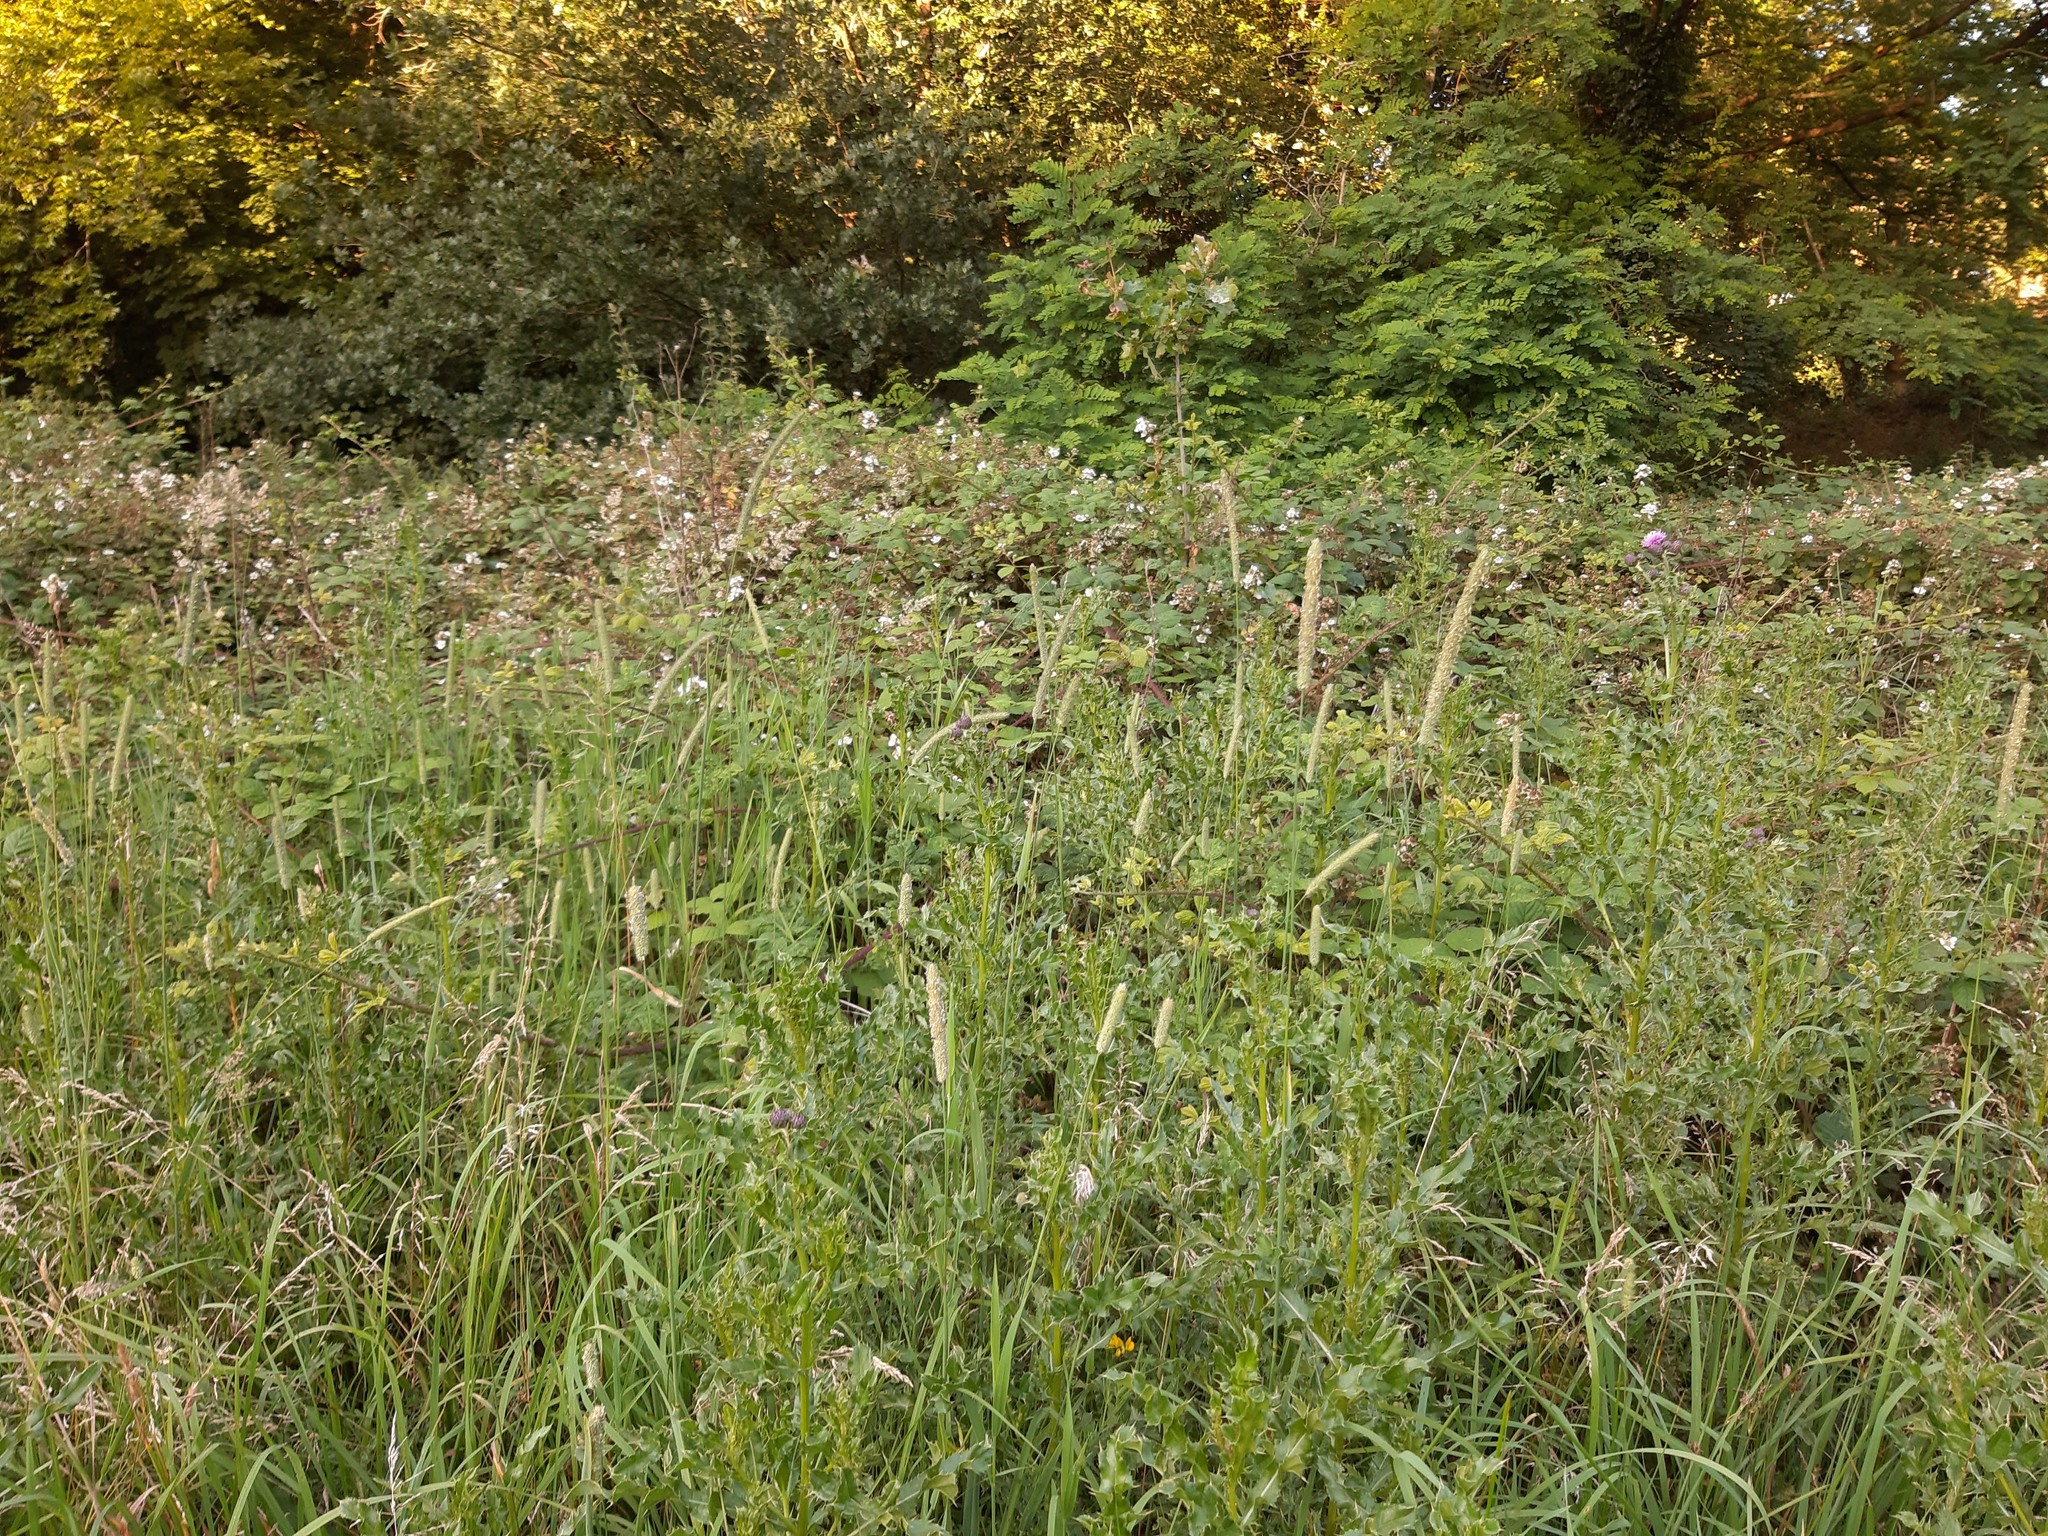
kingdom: Plantae
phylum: Tracheophyta
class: Liliopsida
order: Poales
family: Poaceae
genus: Phleum
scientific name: Phleum pratense
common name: Timothy grass
